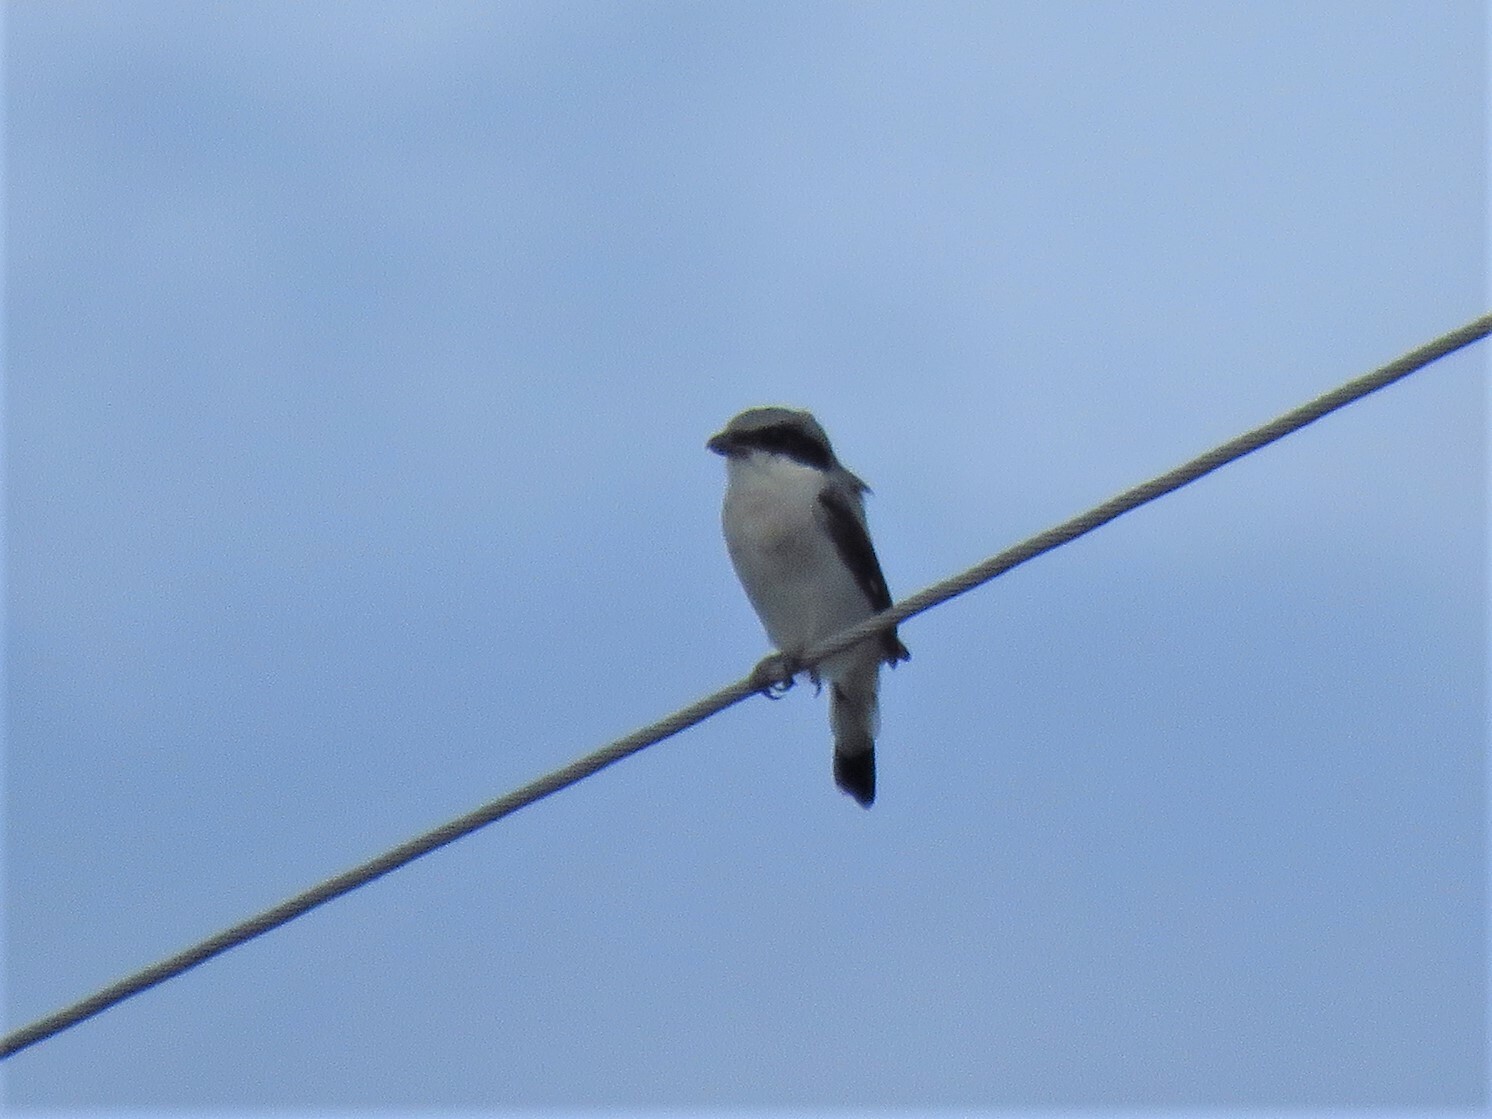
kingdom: Animalia
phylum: Chordata
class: Aves
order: Passeriformes
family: Laniidae
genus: Lanius
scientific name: Lanius ludovicianus
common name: Loggerhead shrike
